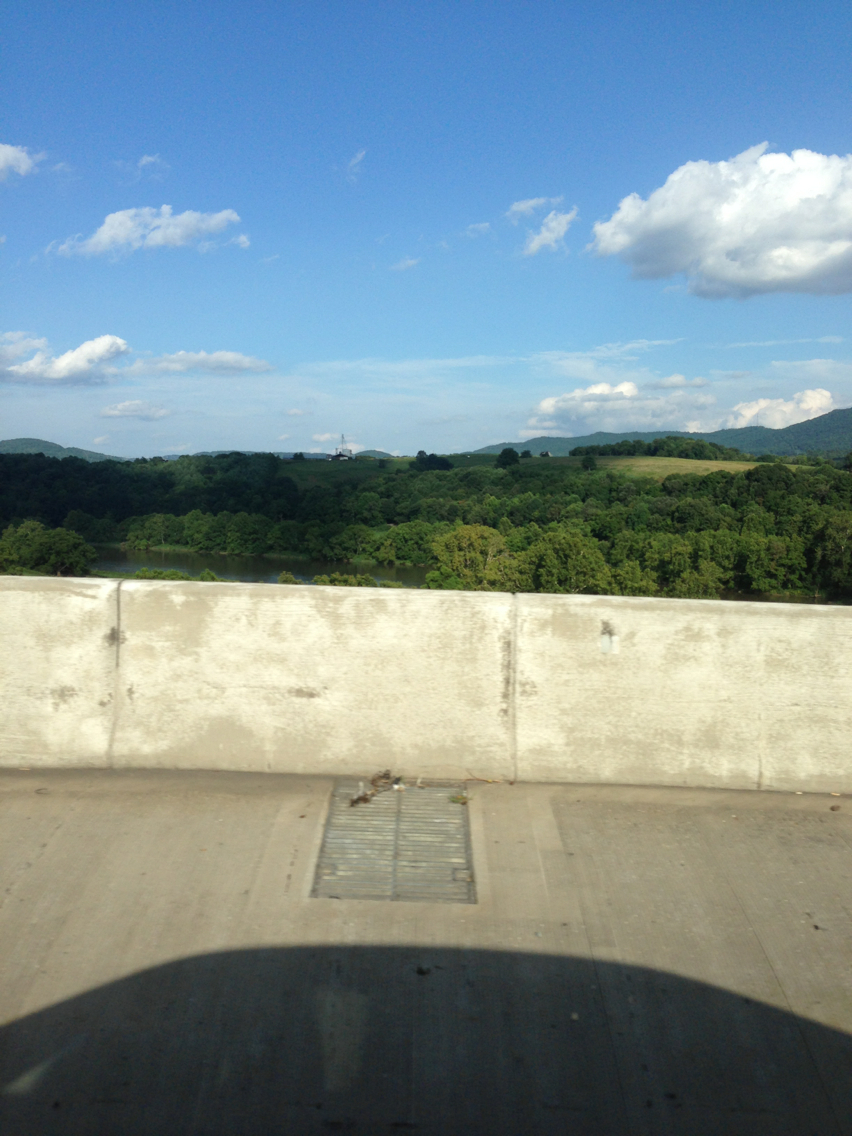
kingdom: Plantae
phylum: Tracheophyta
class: Magnoliopsida
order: Proteales
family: Platanaceae
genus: Platanus
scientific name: Platanus occidentalis
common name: American sycamore
